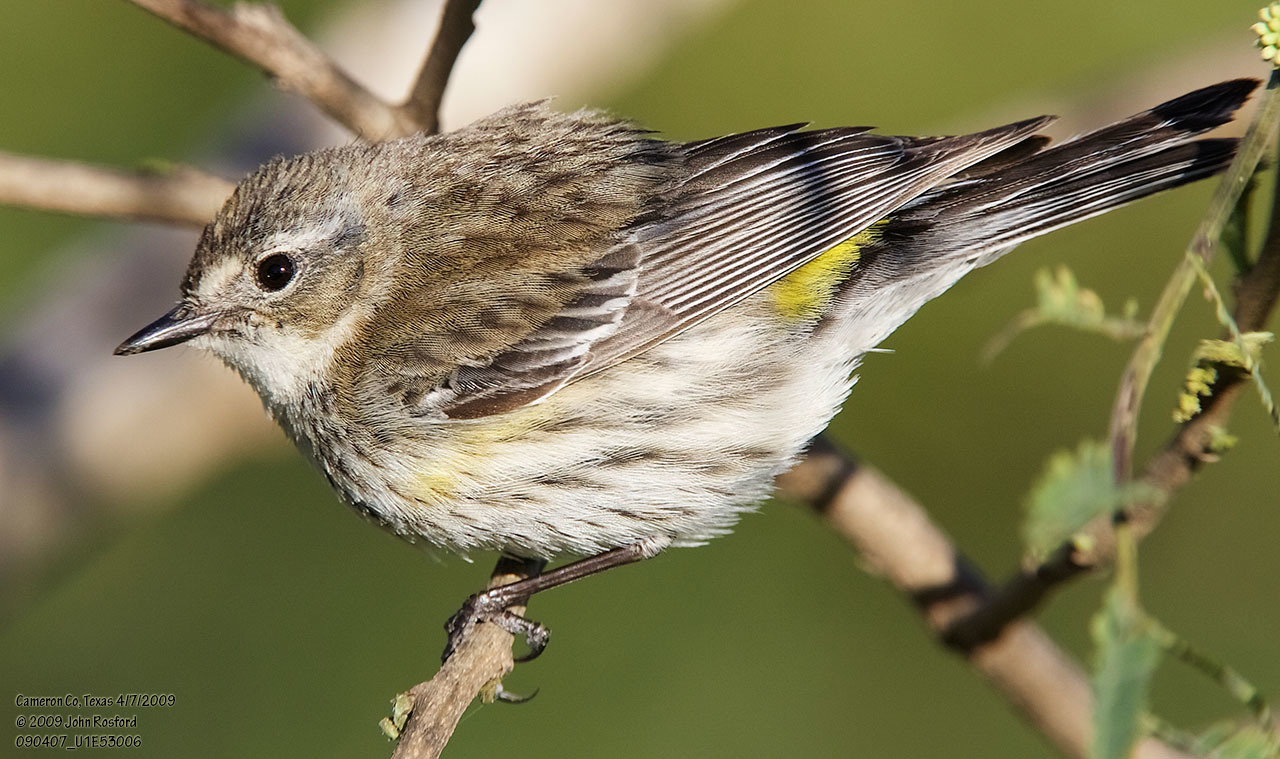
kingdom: Animalia
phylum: Chordata
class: Aves
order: Passeriformes
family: Parulidae
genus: Setophaga
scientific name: Setophaga coronata
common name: Myrtle warbler
